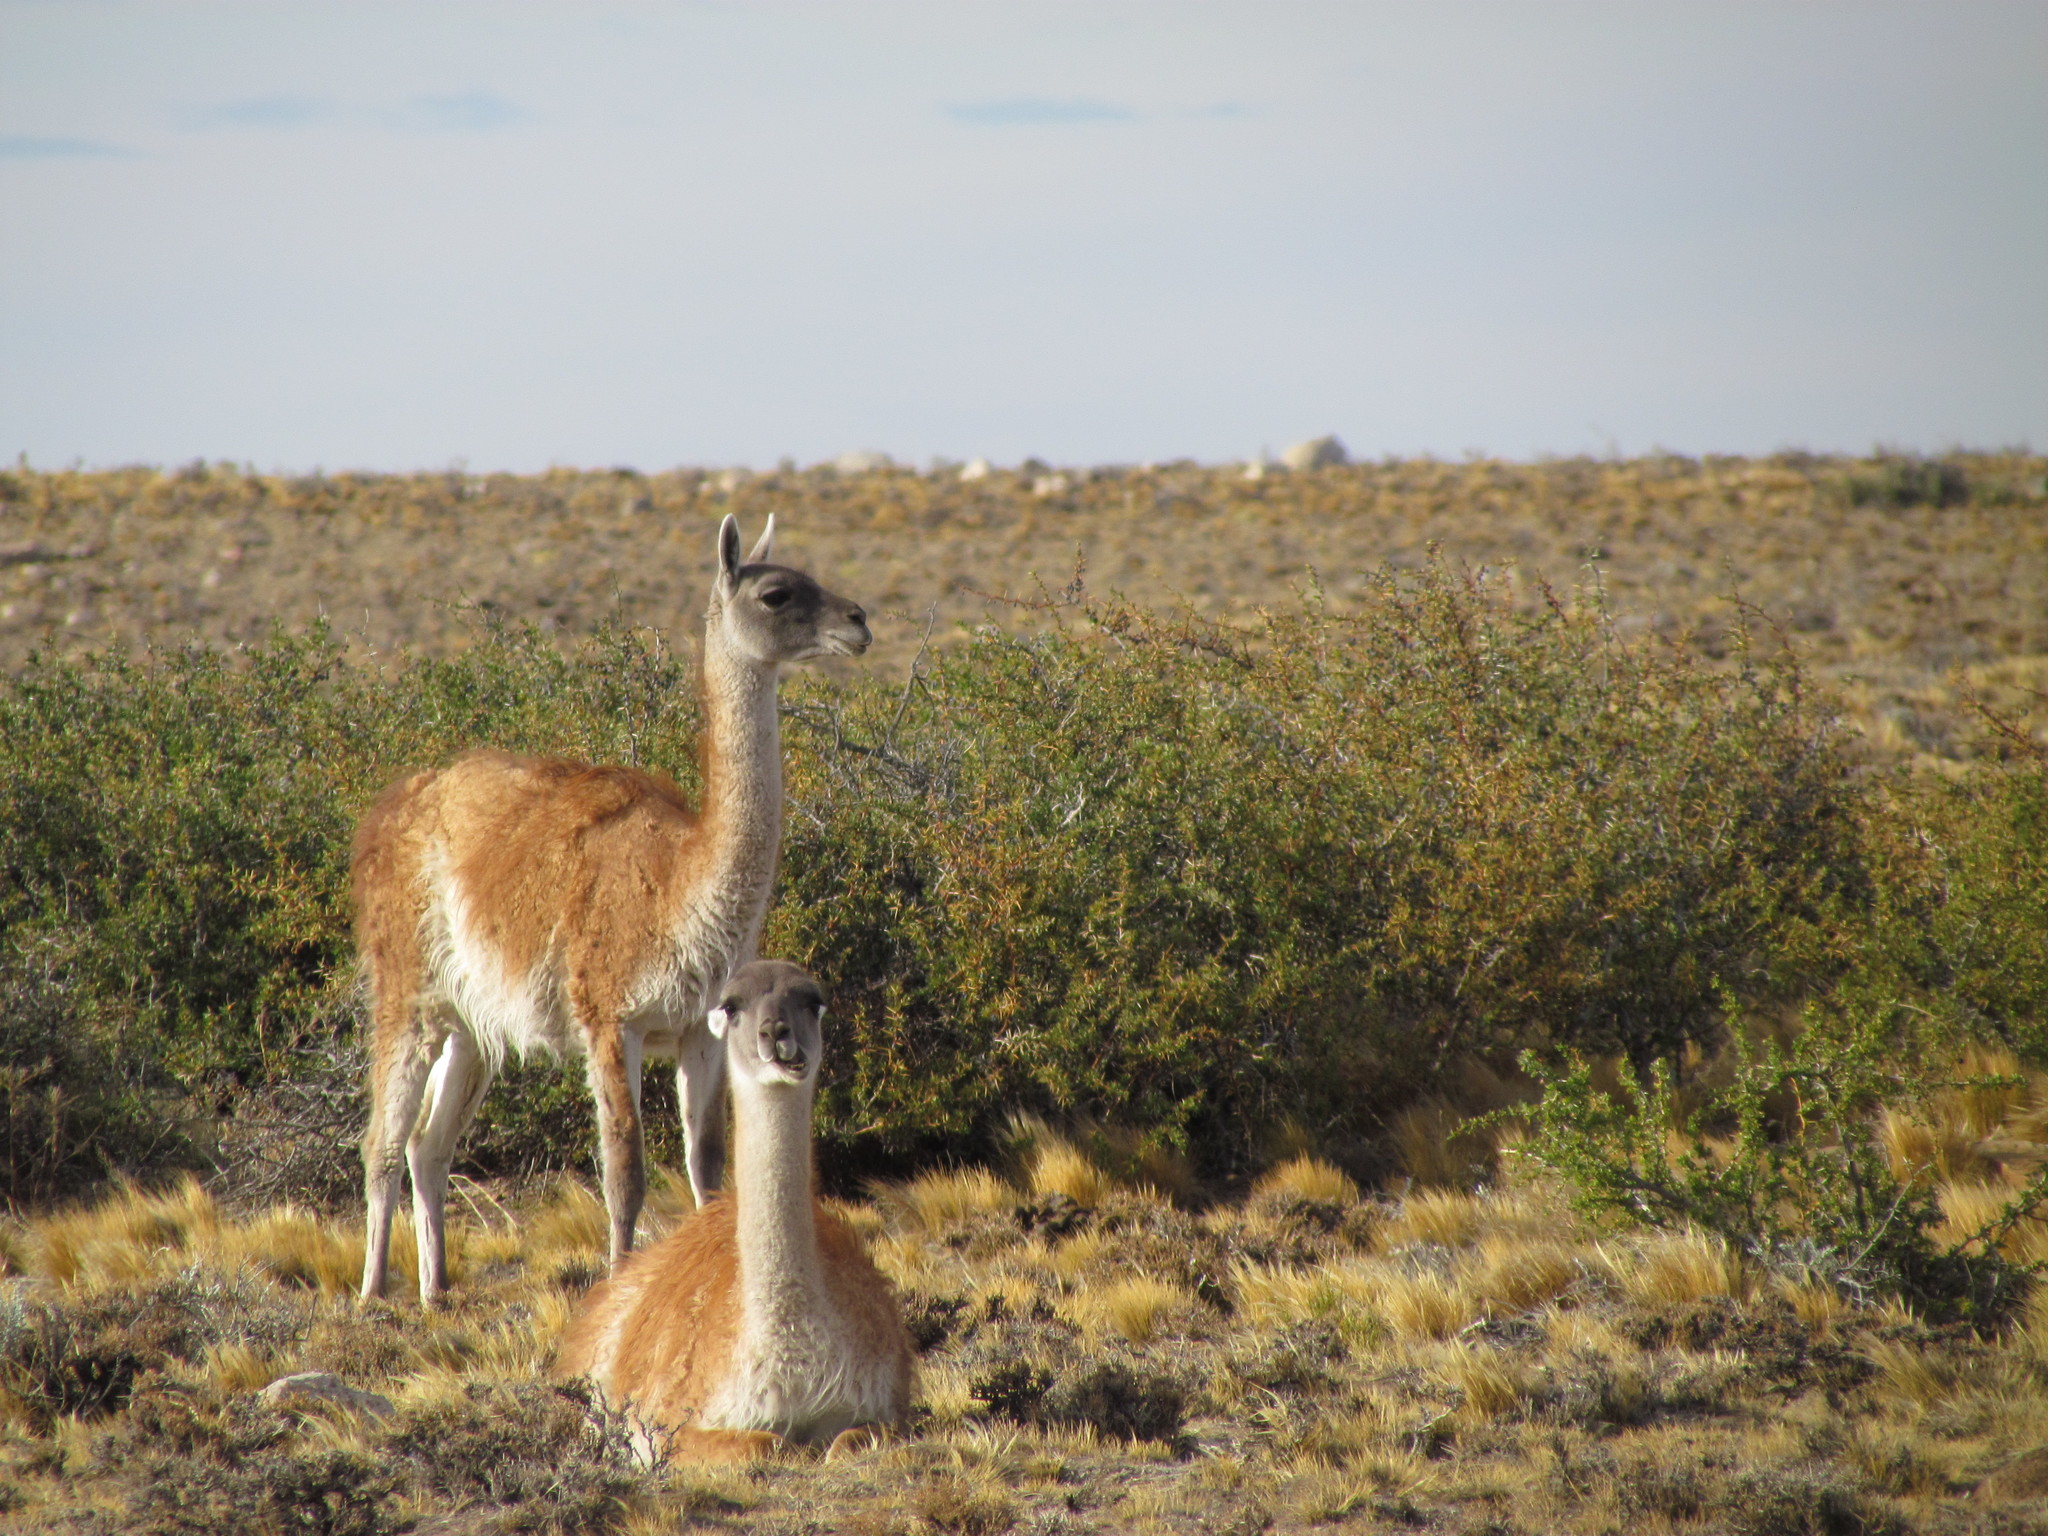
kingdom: Animalia
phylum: Chordata
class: Mammalia
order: Artiodactyla
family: Camelidae
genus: Lama
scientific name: Lama glama
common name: Llama
